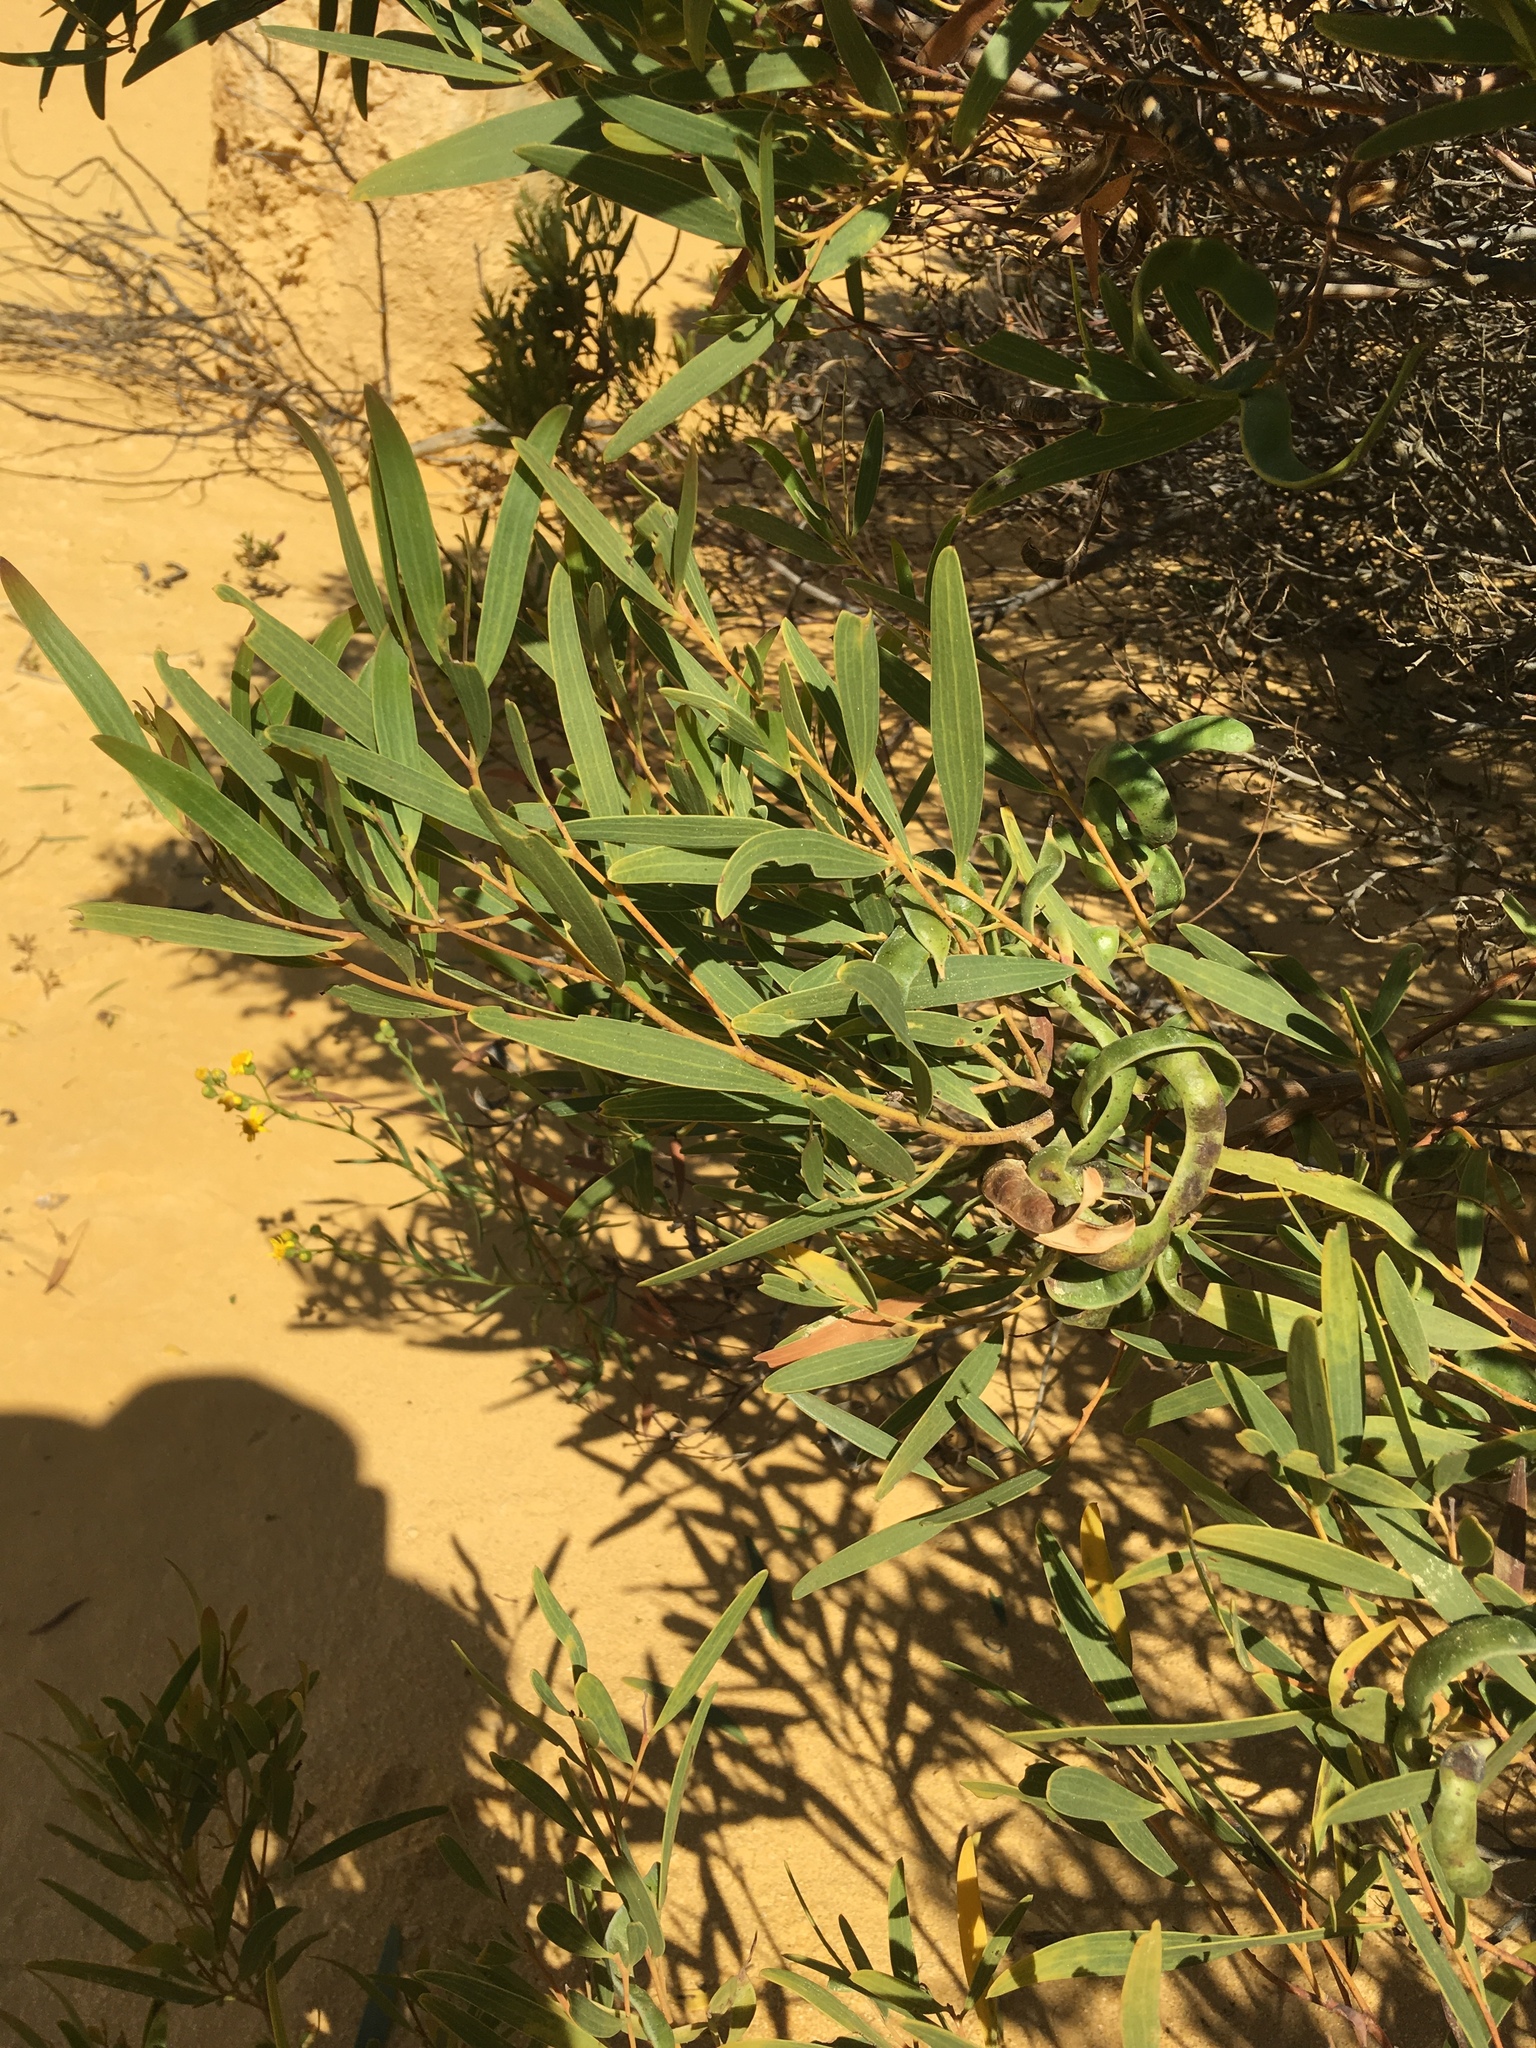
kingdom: Plantae
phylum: Tracheophyta
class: Magnoliopsida
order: Fabales
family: Fabaceae
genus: Acacia
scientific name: Acacia cyclops
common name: Coastal wattle
